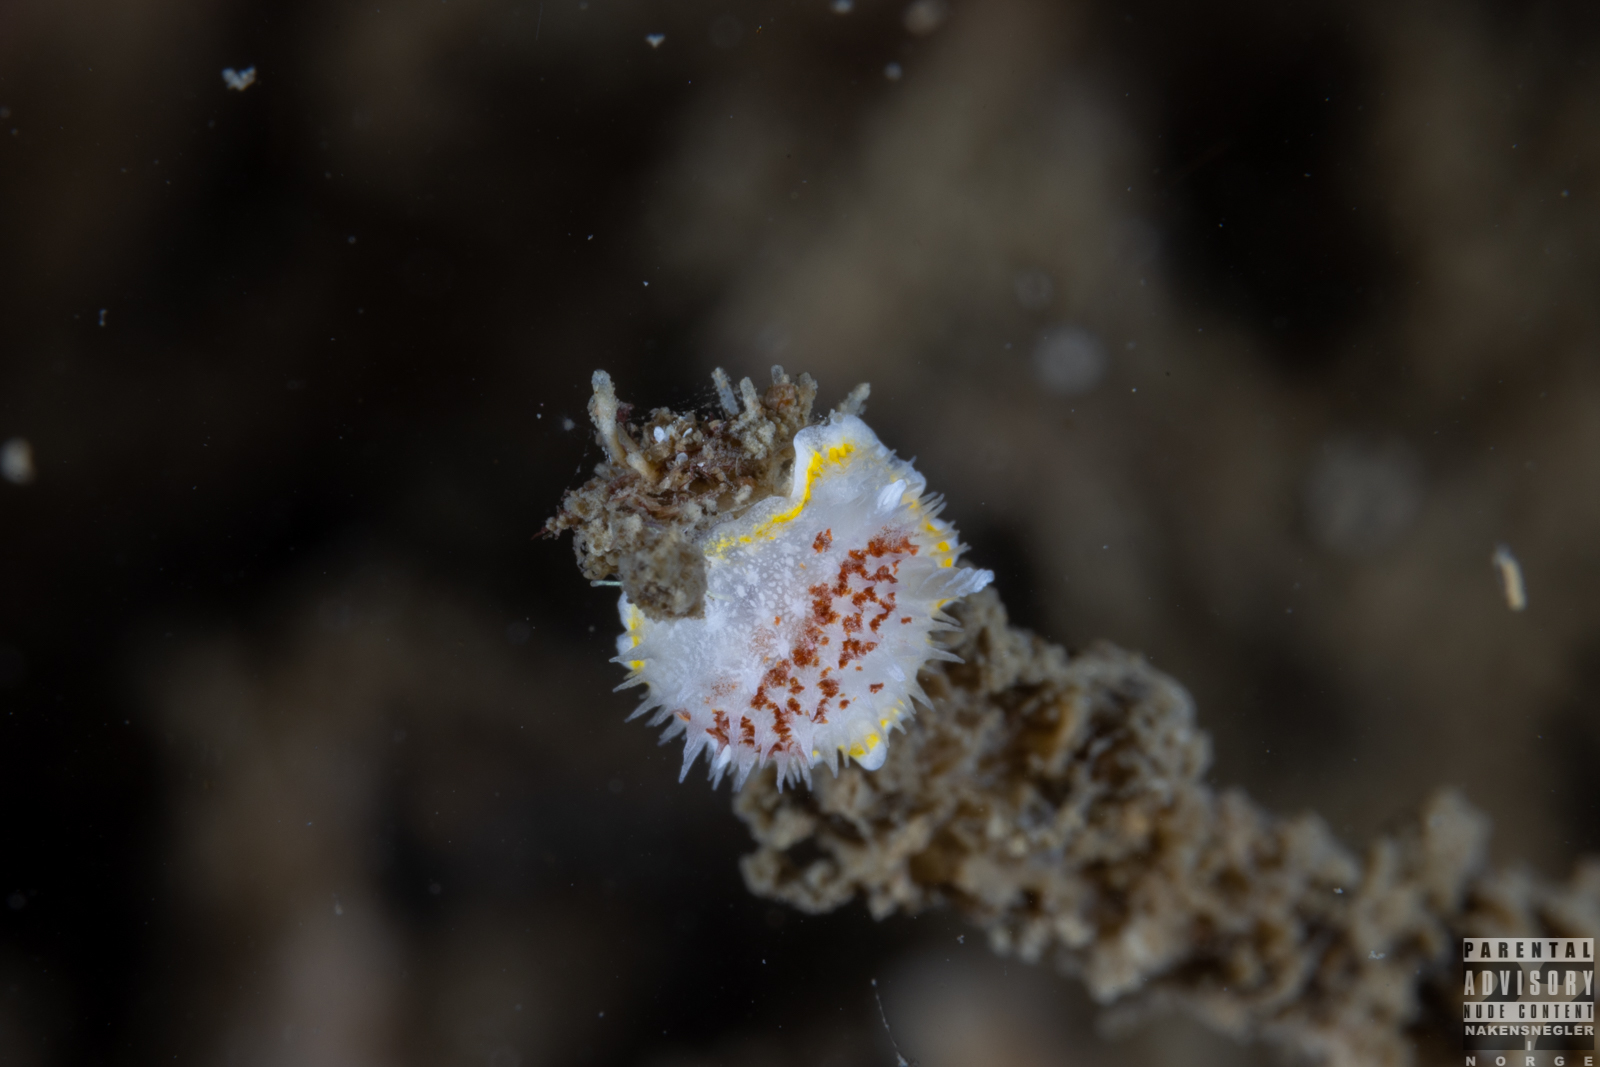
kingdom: Animalia
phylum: Mollusca
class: Gastropoda
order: Nudibranchia
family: Calycidorididae
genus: Diaphorodoris
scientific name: Diaphorodoris luteocincta
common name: Fried egg nudibranch
